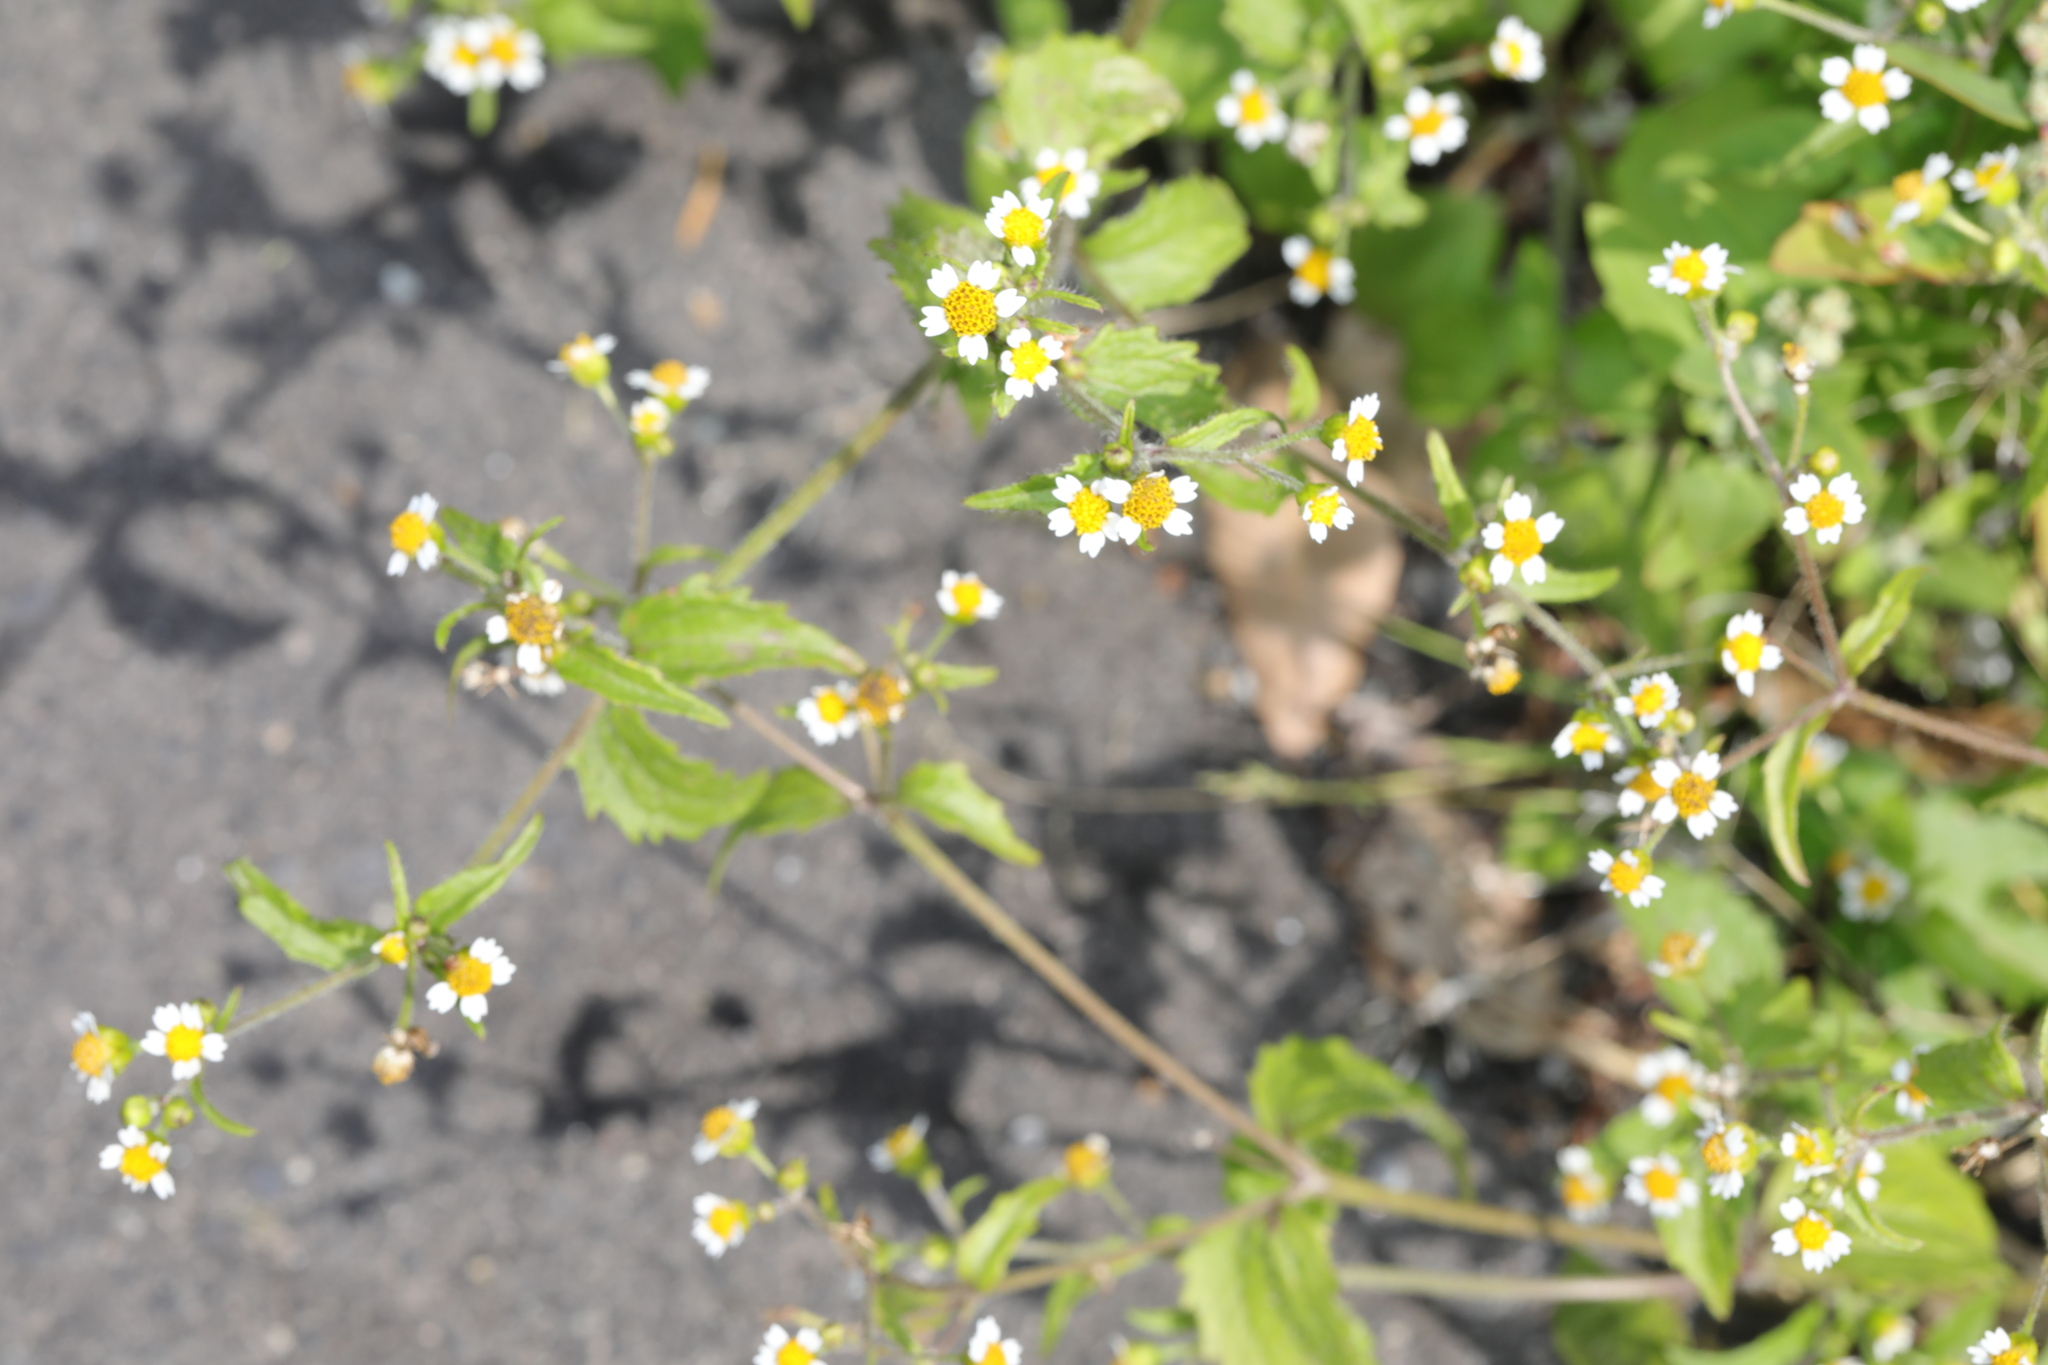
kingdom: Plantae
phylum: Tracheophyta
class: Magnoliopsida
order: Asterales
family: Asteraceae
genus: Galinsoga
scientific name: Galinsoga quadriradiata
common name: Shaggy soldier
